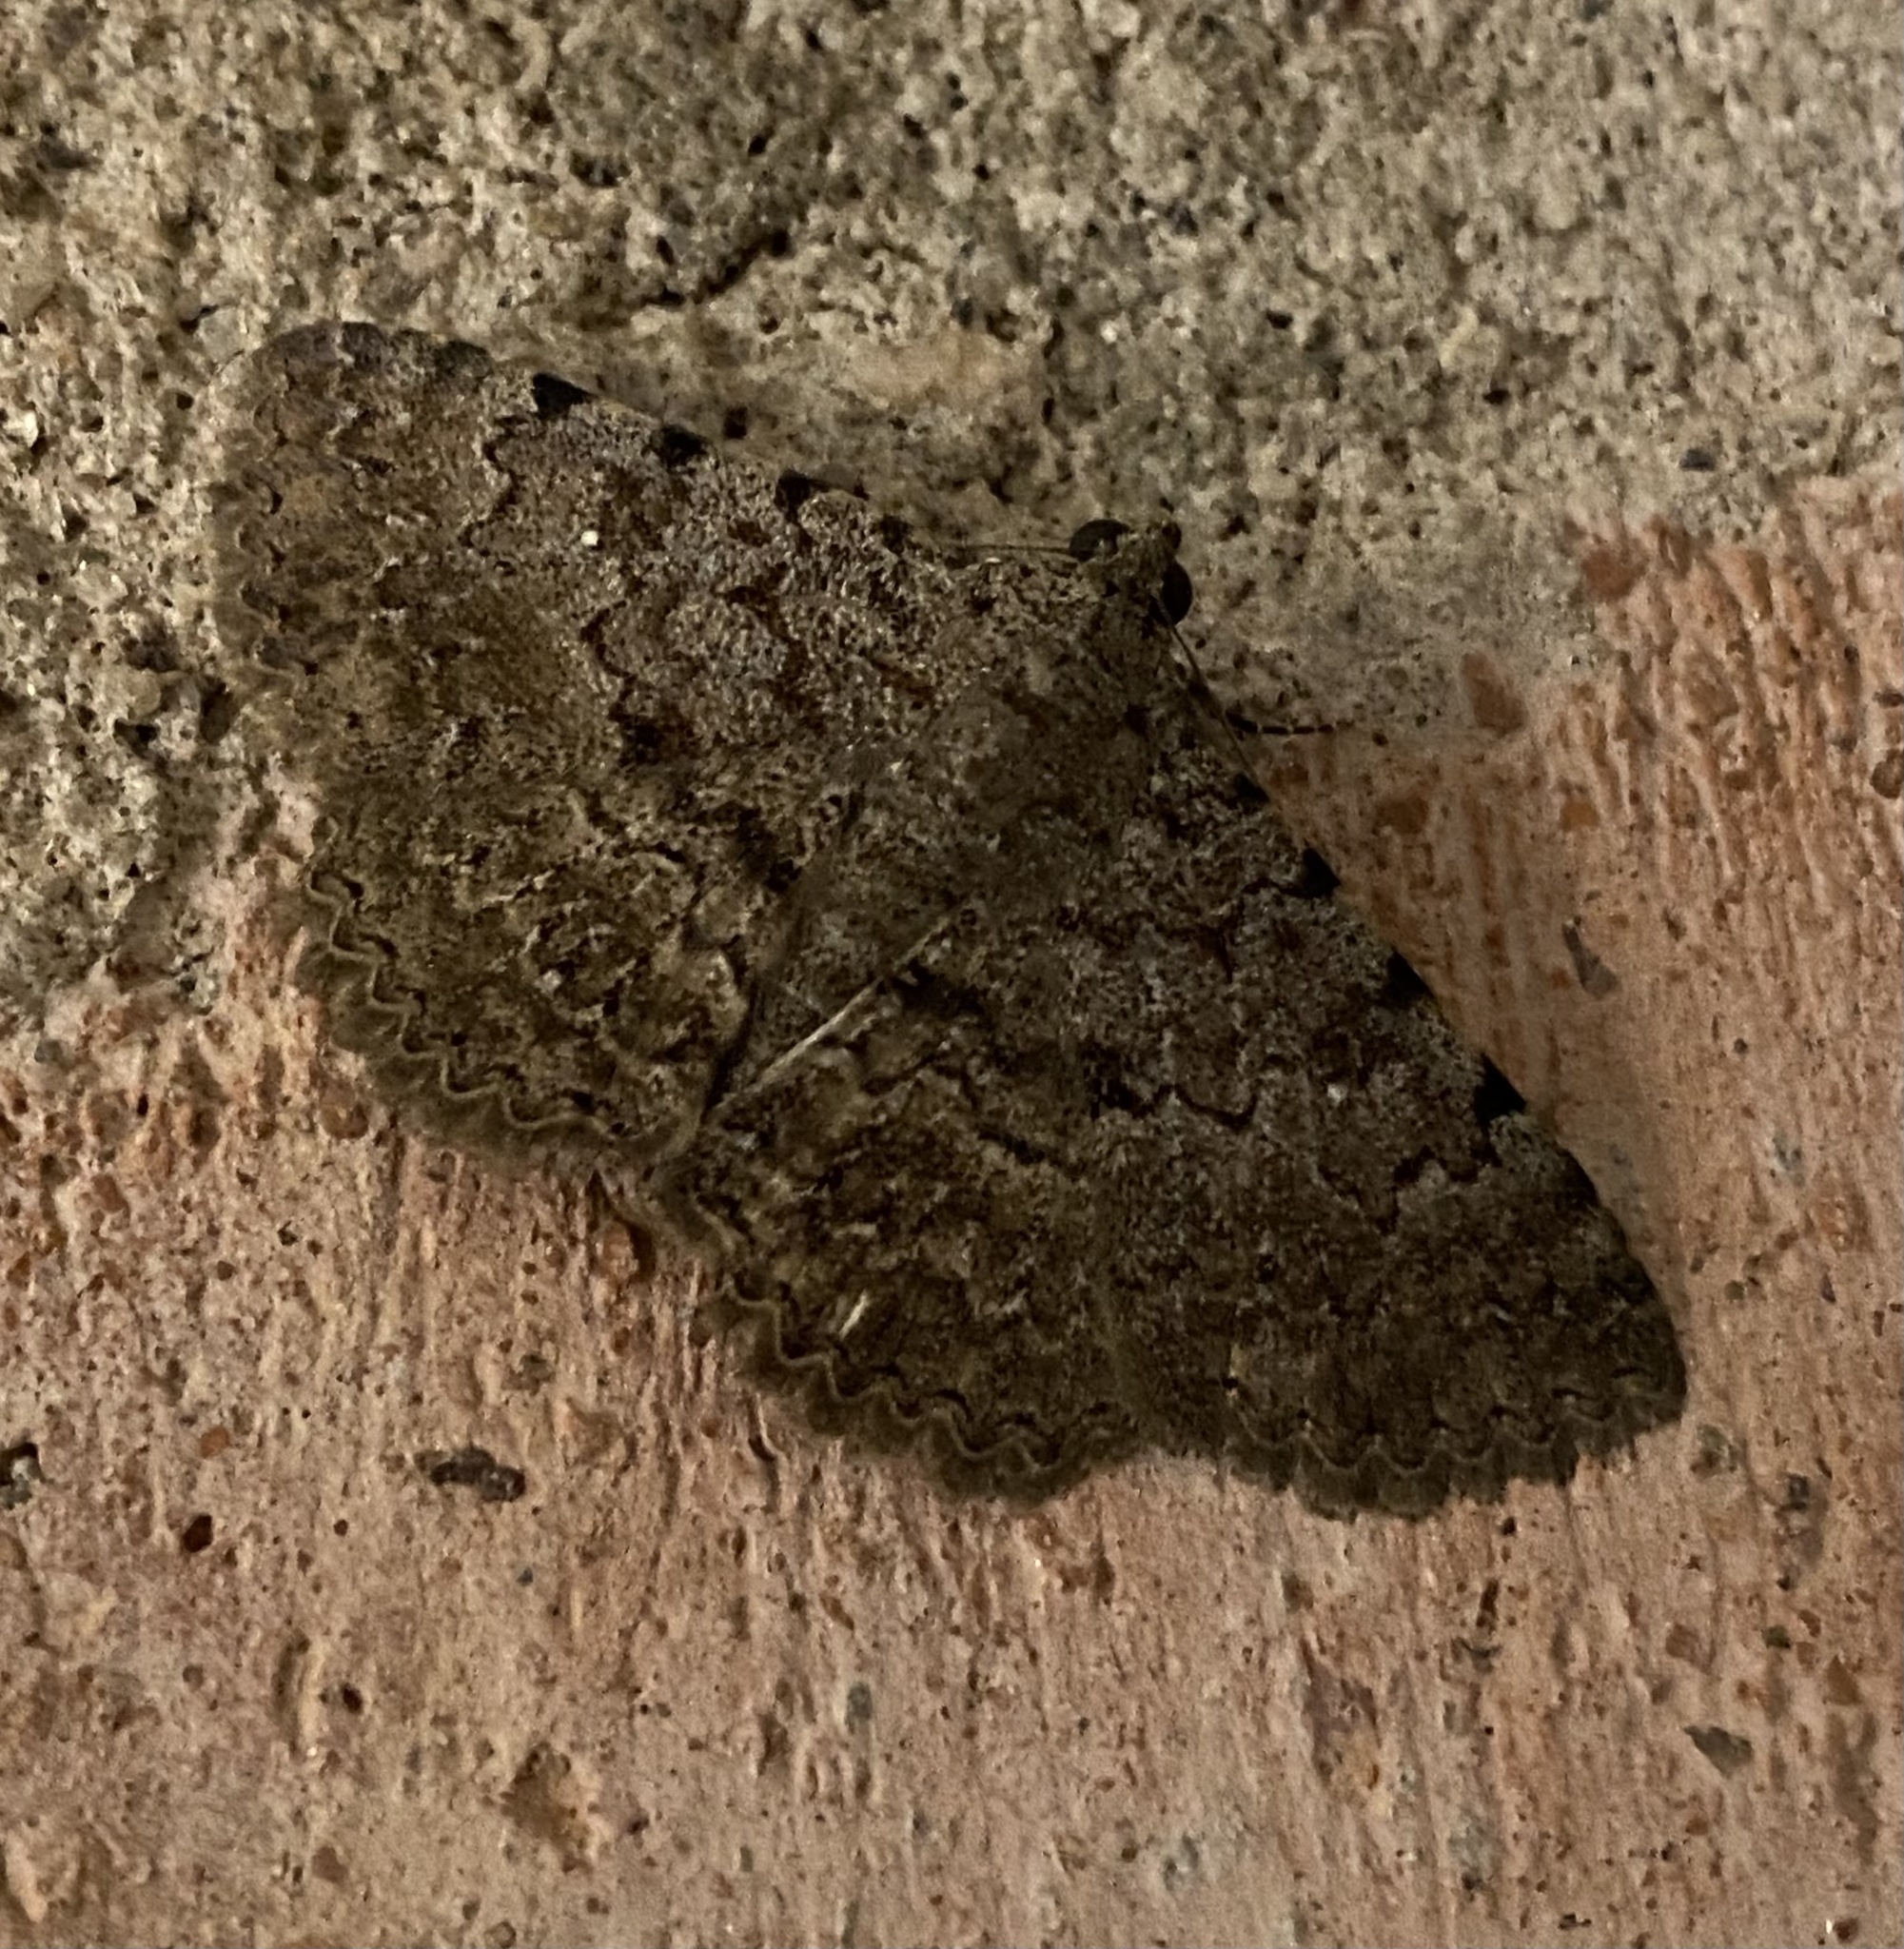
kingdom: Animalia
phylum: Arthropoda
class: Insecta
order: Lepidoptera
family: Erebidae
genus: Heteropalpia
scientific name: Heteropalpia cortytoides
